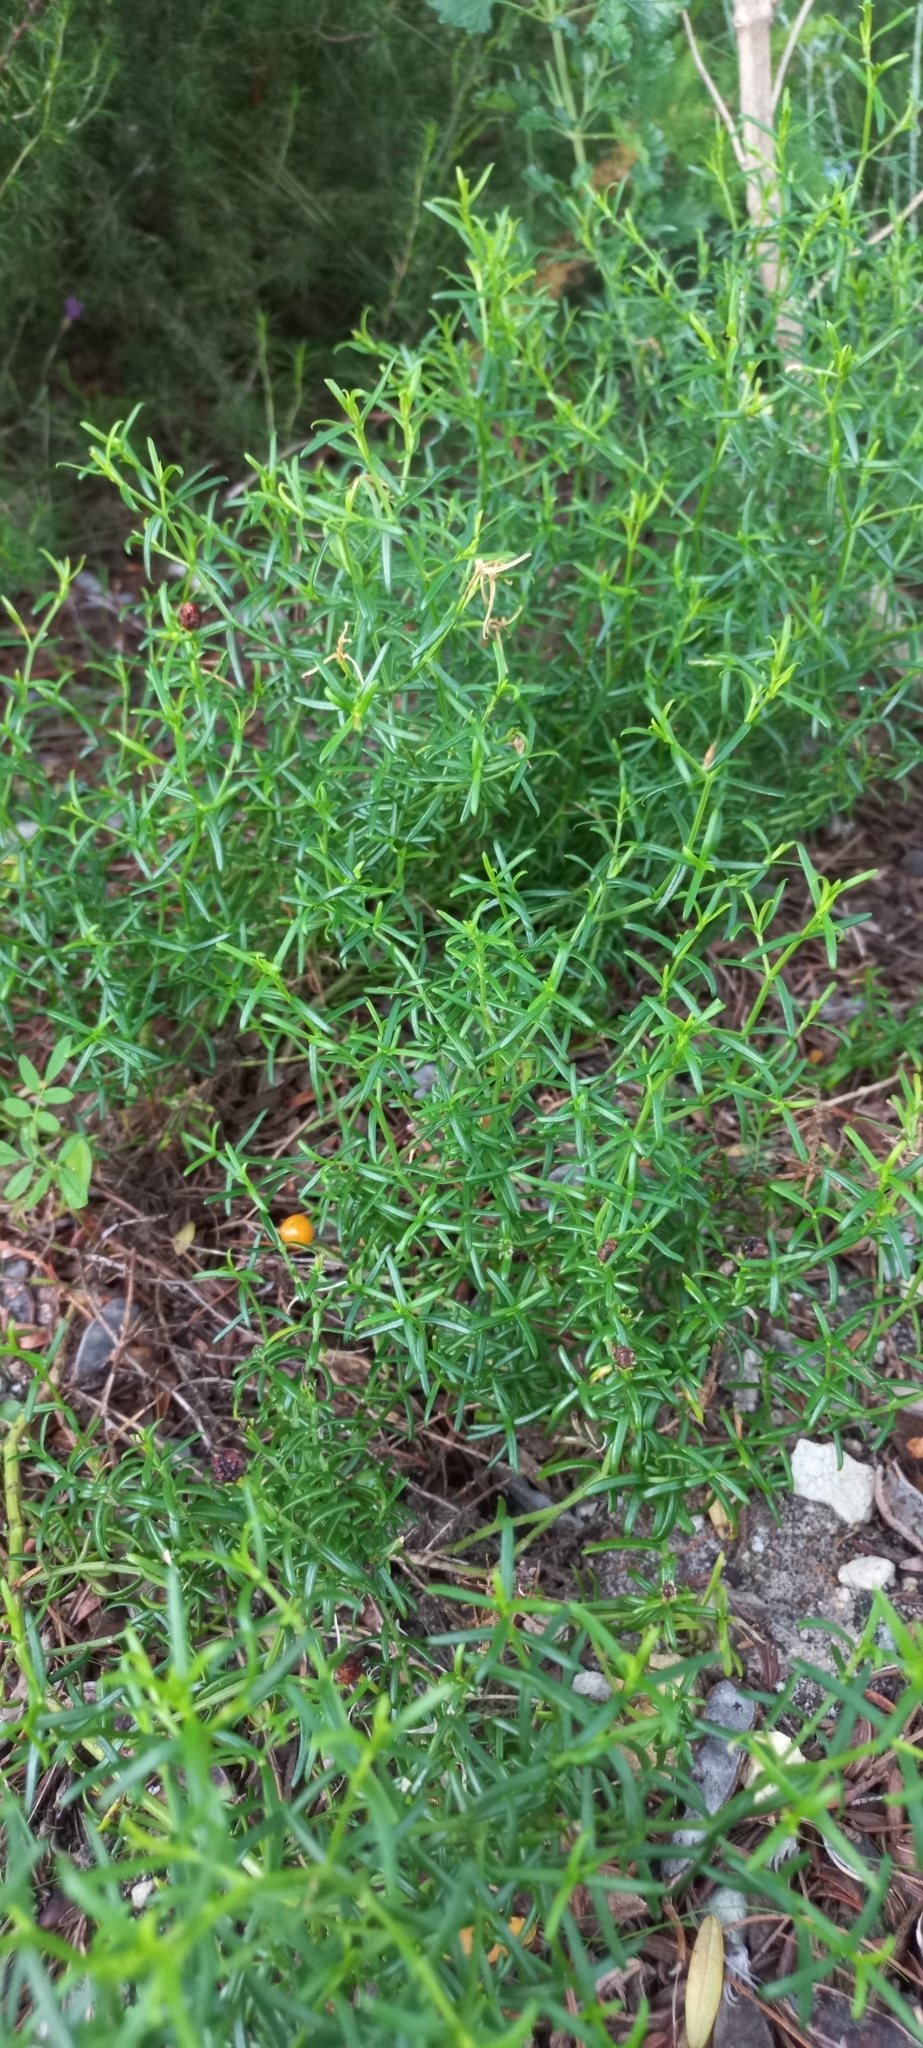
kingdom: Plantae
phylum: Tracheophyta
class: Magnoliopsida
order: Gentianales
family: Gentianaceae
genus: Chironia
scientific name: Chironia baccifera
